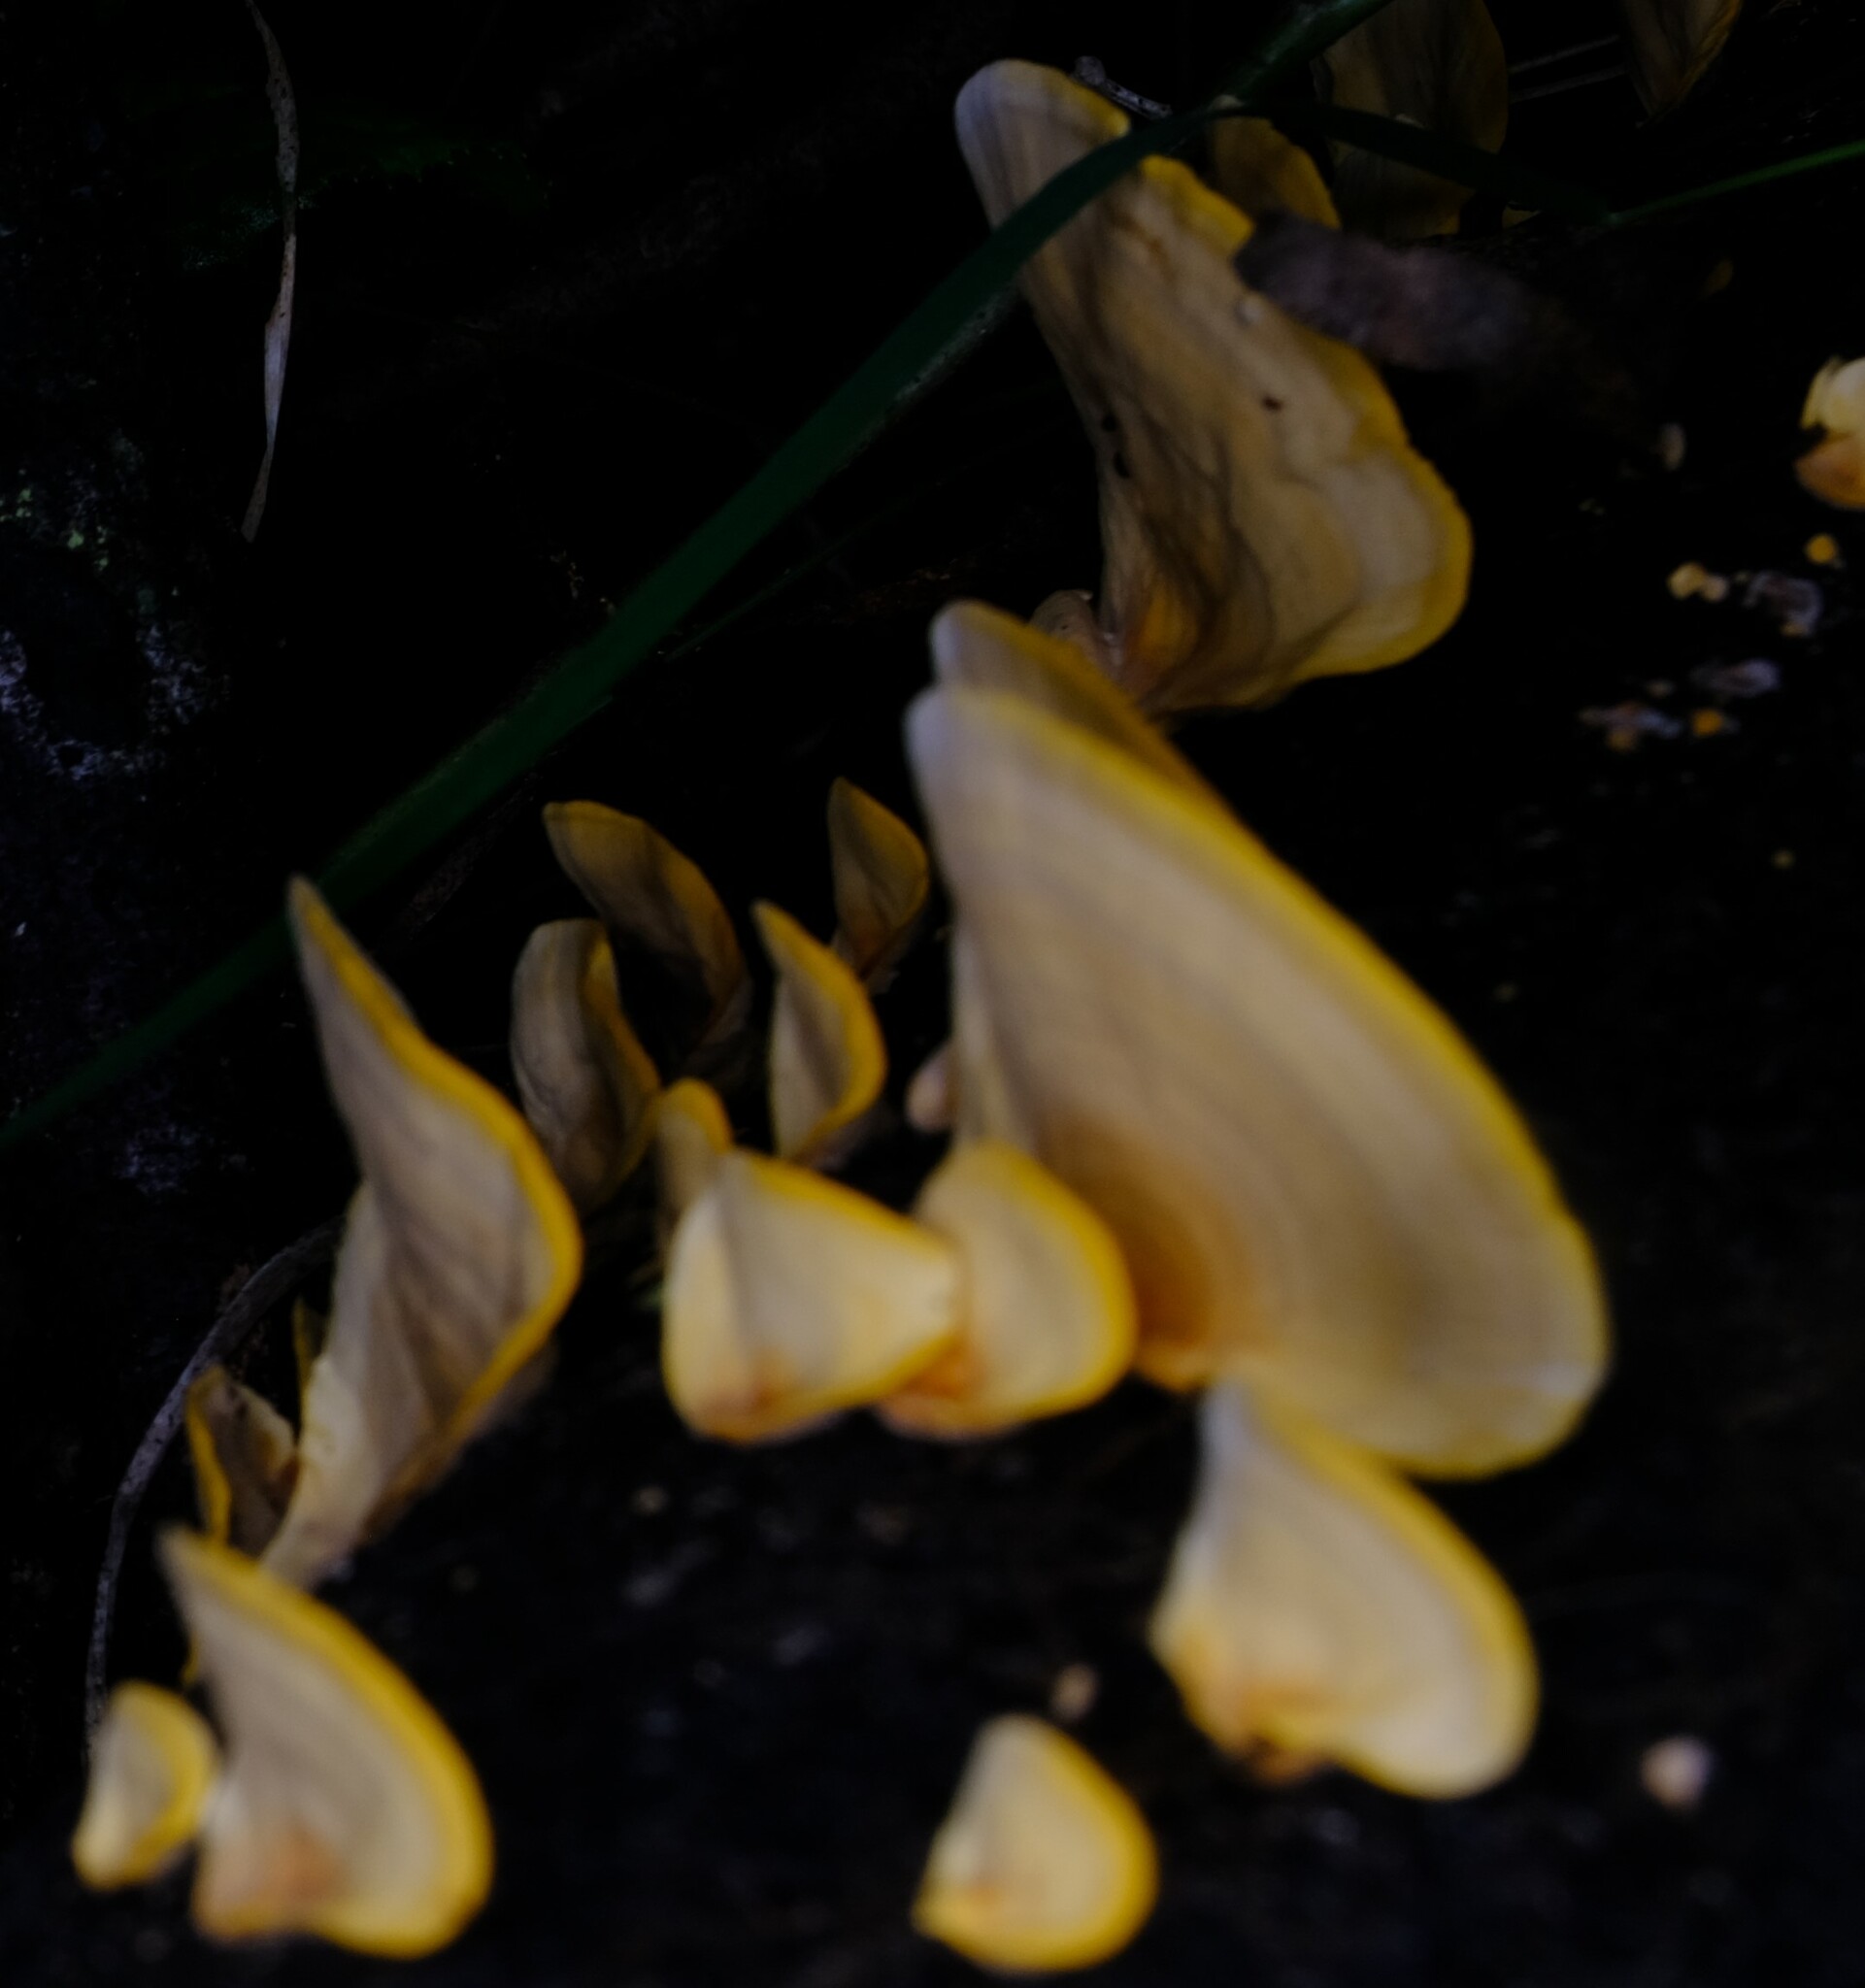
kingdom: Fungi
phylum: Basidiomycota
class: Agaricomycetes
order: Russulales
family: Stereaceae
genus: Stereum
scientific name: Stereum ostrea
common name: False turkeytail
